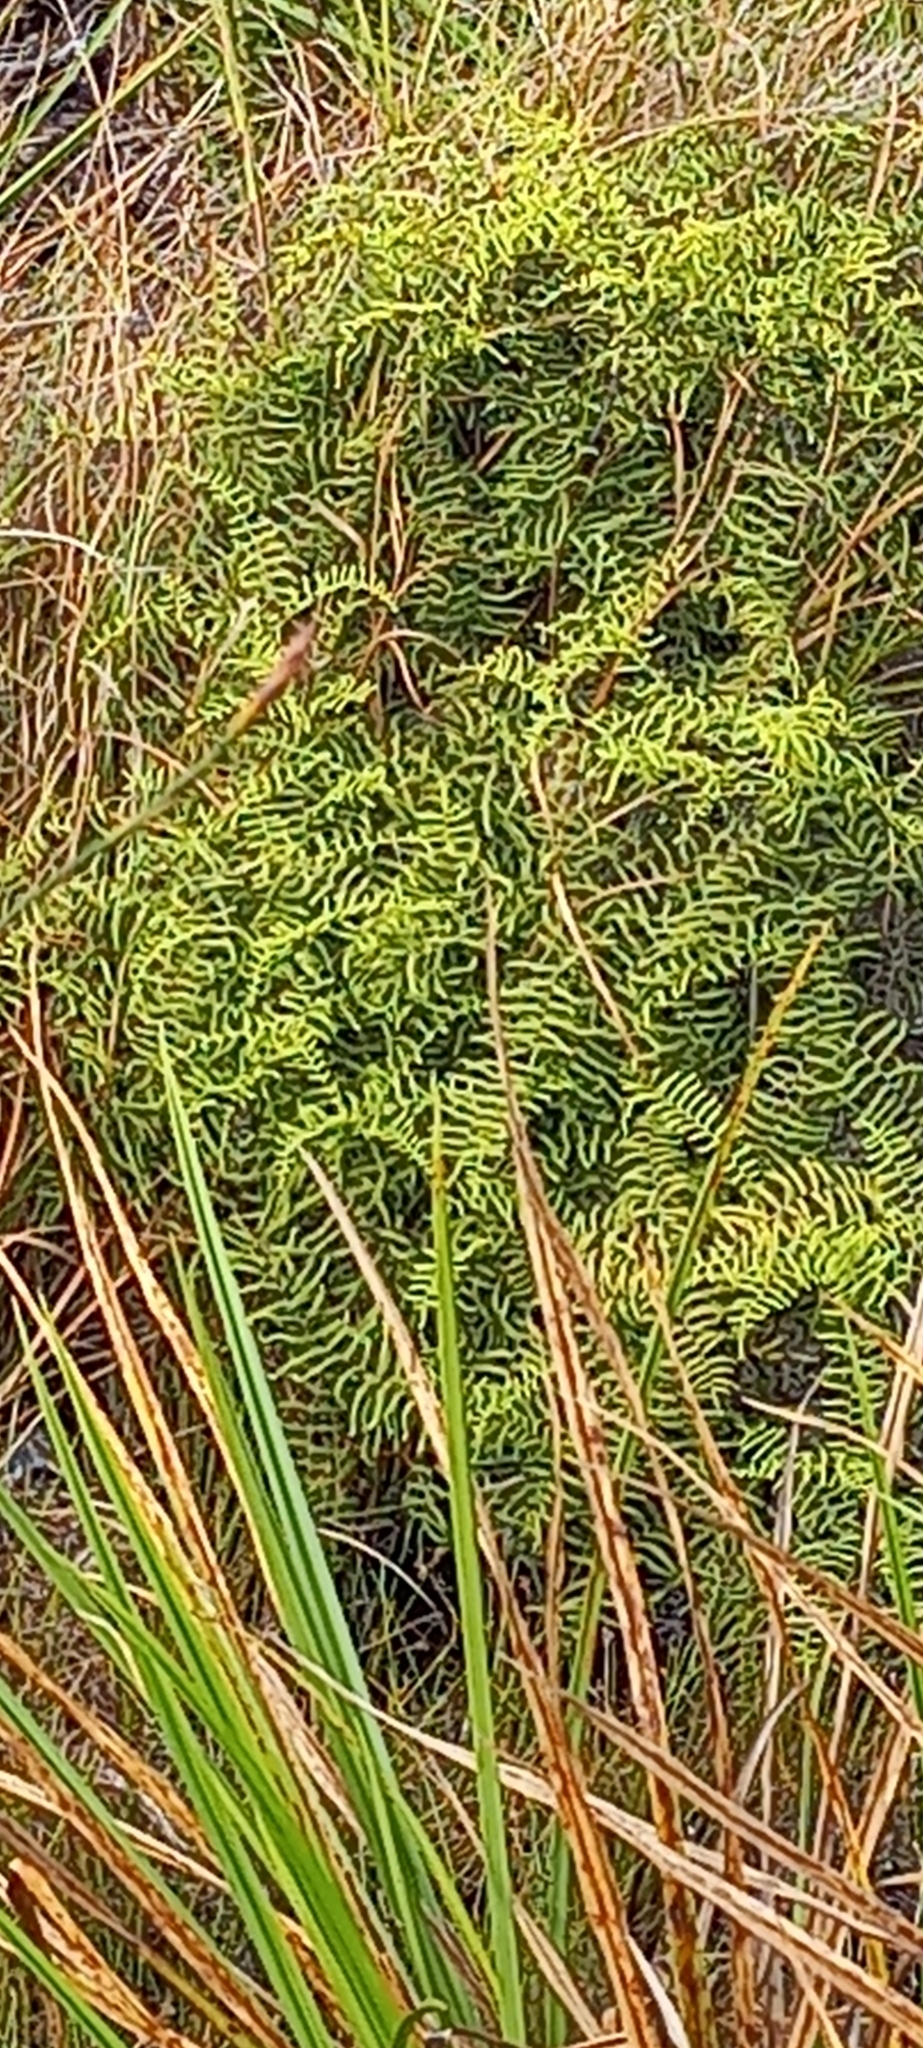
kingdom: Plantae
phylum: Tracheophyta
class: Polypodiopsida
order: Gleicheniales
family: Gleicheniaceae
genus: Gleichenia
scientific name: Gleichenia polypodioides
